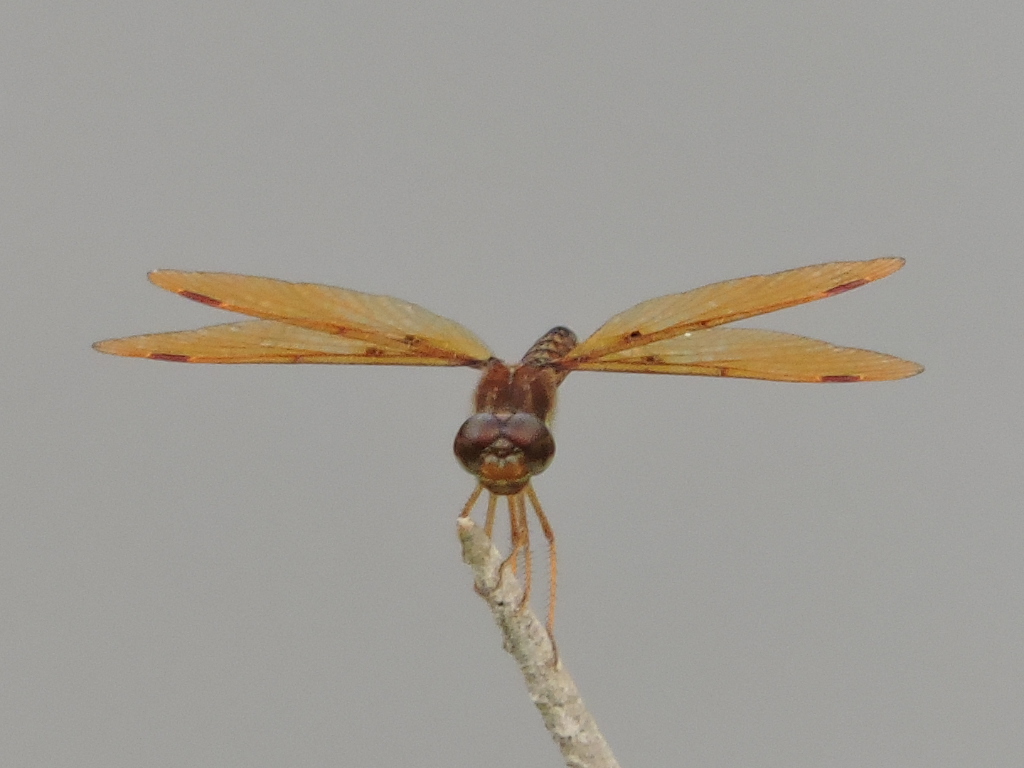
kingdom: Animalia
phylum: Arthropoda
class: Insecta
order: Odonata
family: Libellulidae
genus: Perithemis
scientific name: Perithemis tenera
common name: Eastern amberwing
